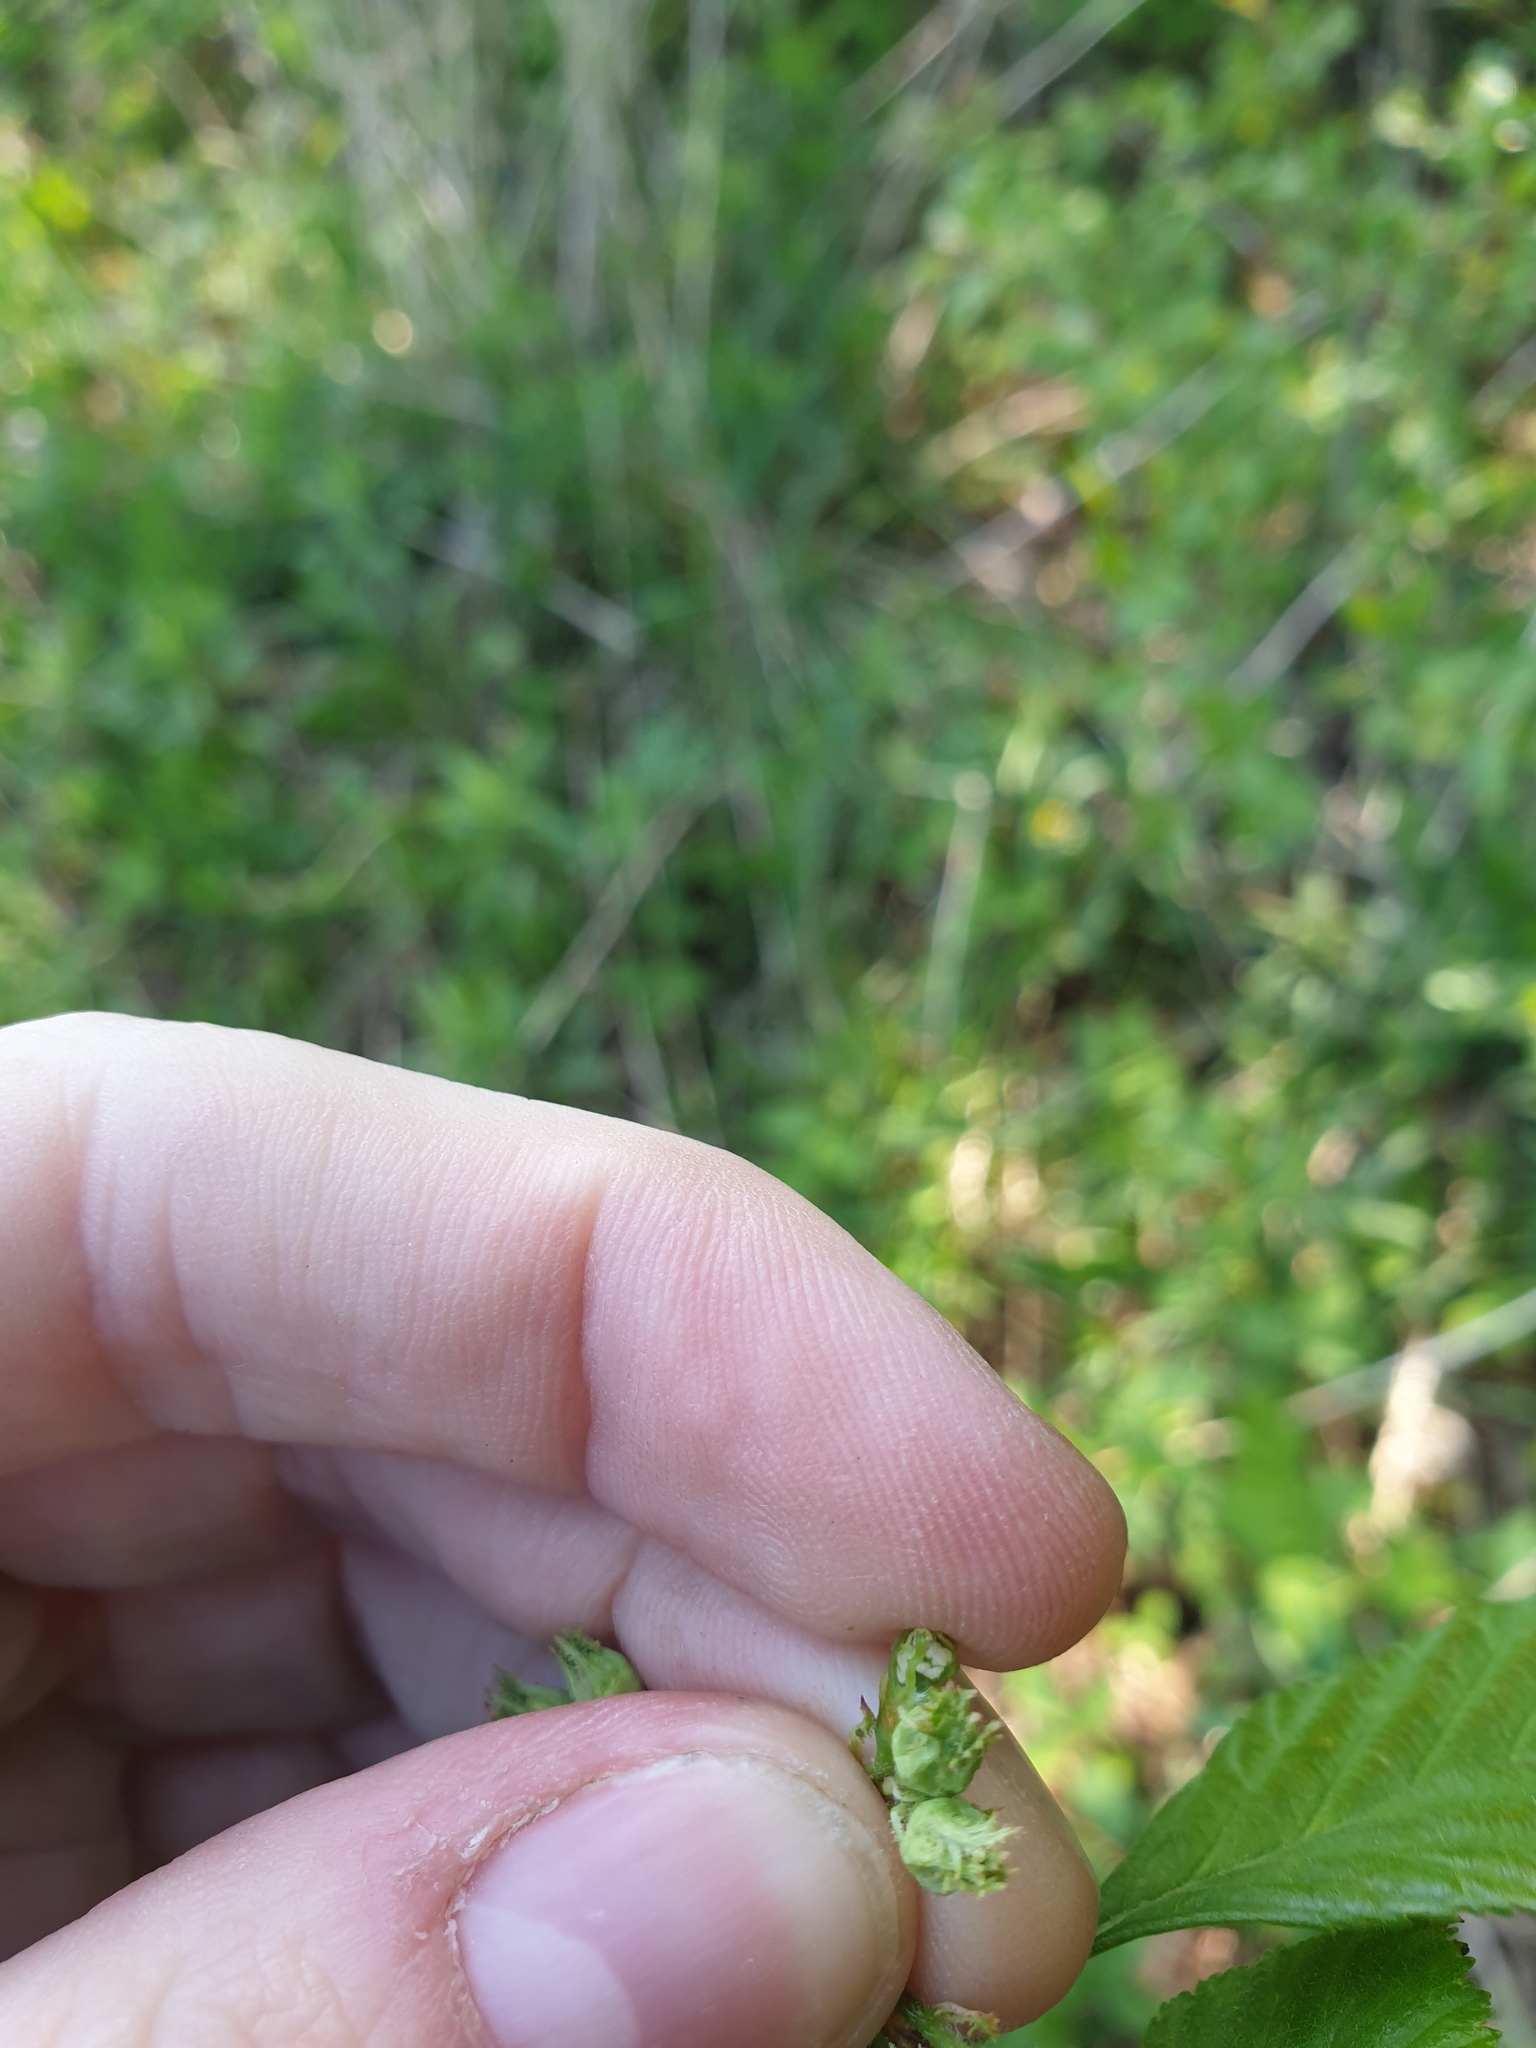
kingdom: Plantae
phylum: Tracheophyta
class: Magnoliopsida
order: Rosales
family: Rosaceae
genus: Crataegus
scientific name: Crataegus macracantha
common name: Large-thorn hawthorn
